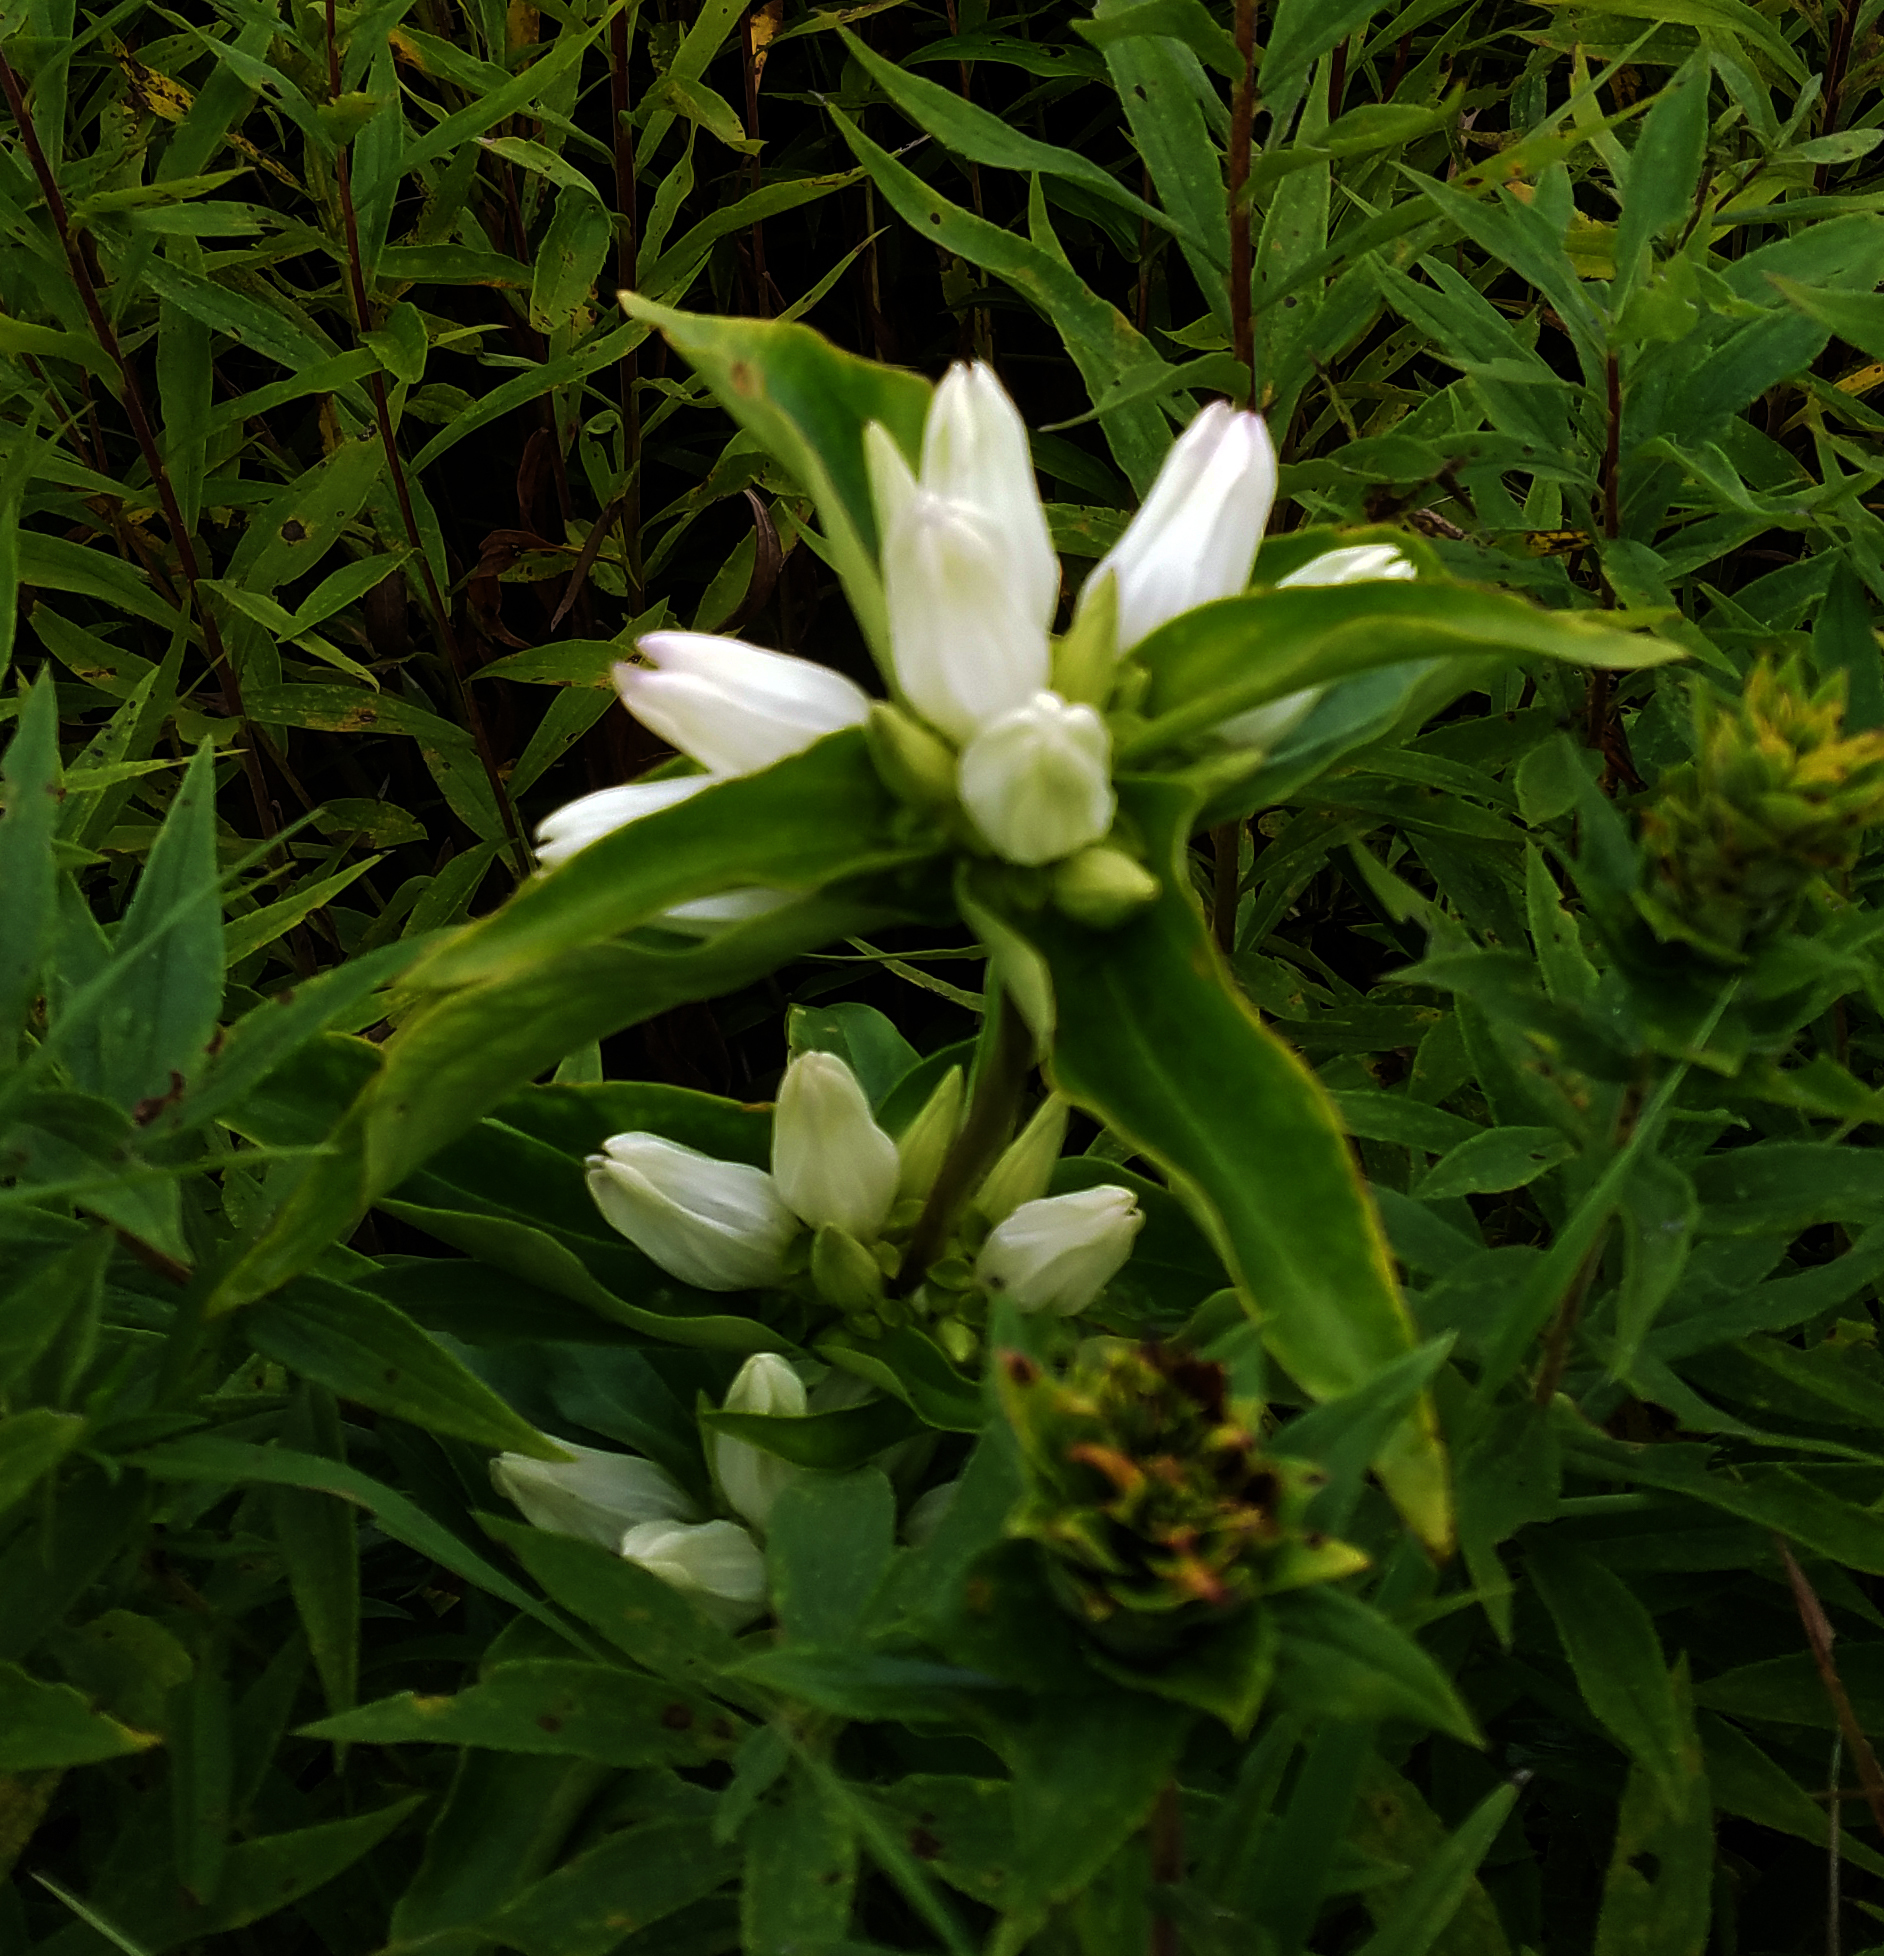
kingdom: Plantae
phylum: Tracheophyta
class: Magnoliopsida
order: Gentianales
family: Gentianaceae
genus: Gentiana
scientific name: Gentiana alba
